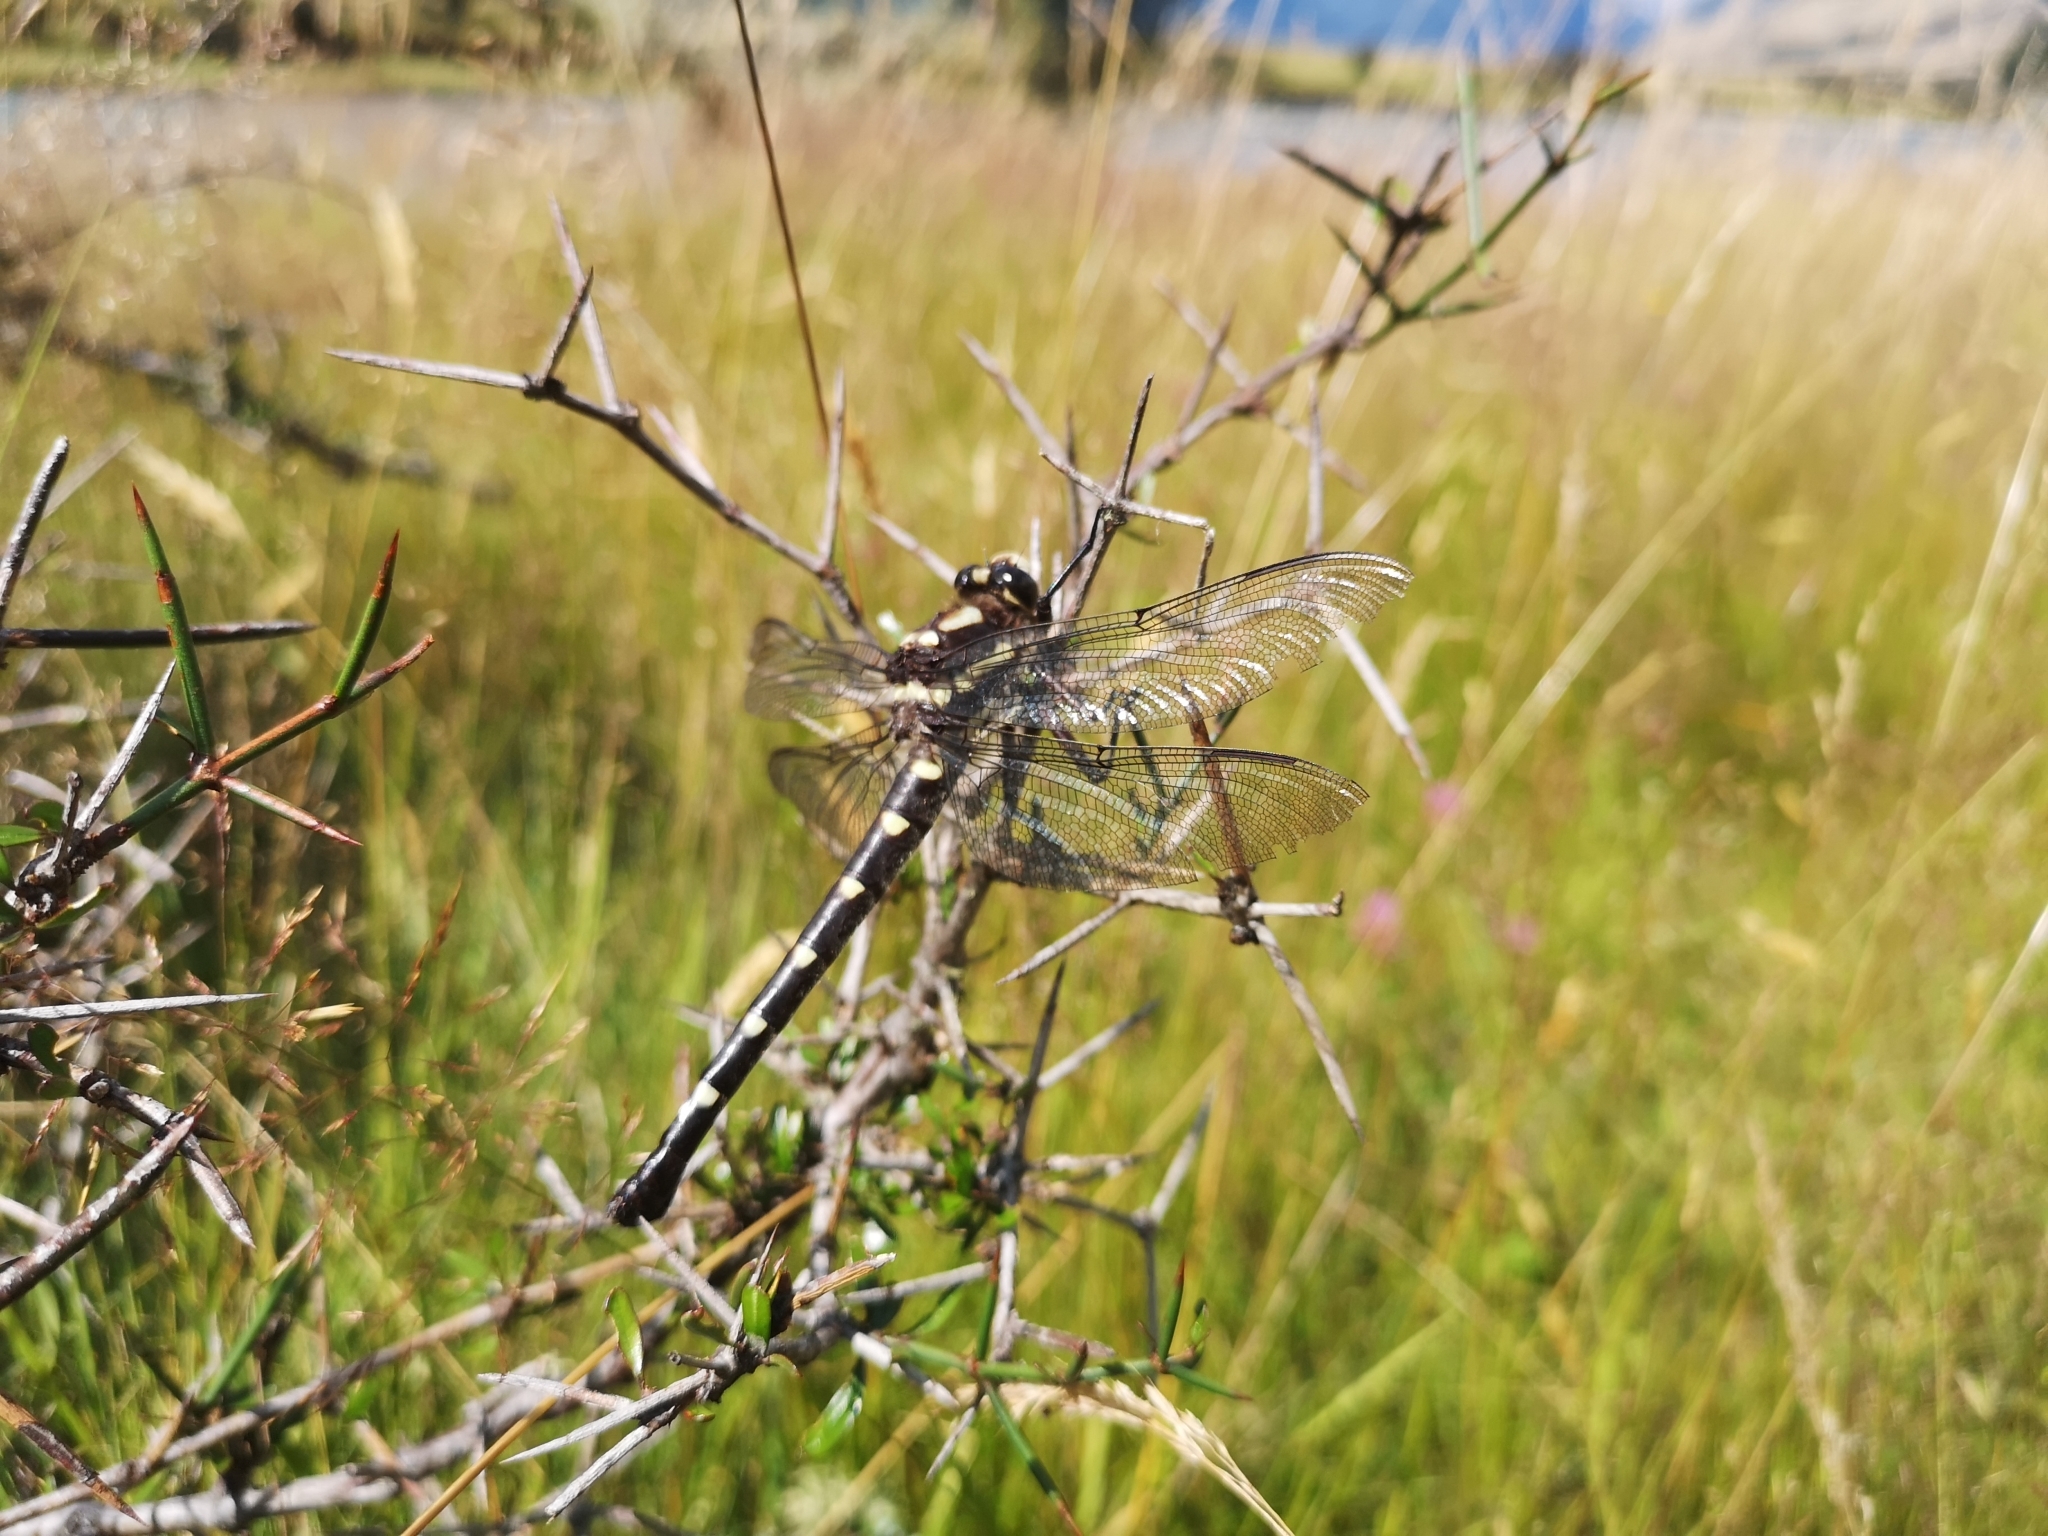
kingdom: Animalia
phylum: Arthropoda
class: Insecta
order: Odonata
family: Petaluridae
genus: Uropetala
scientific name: Uropetala chiltoni
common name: Mountain giant dragonfly
